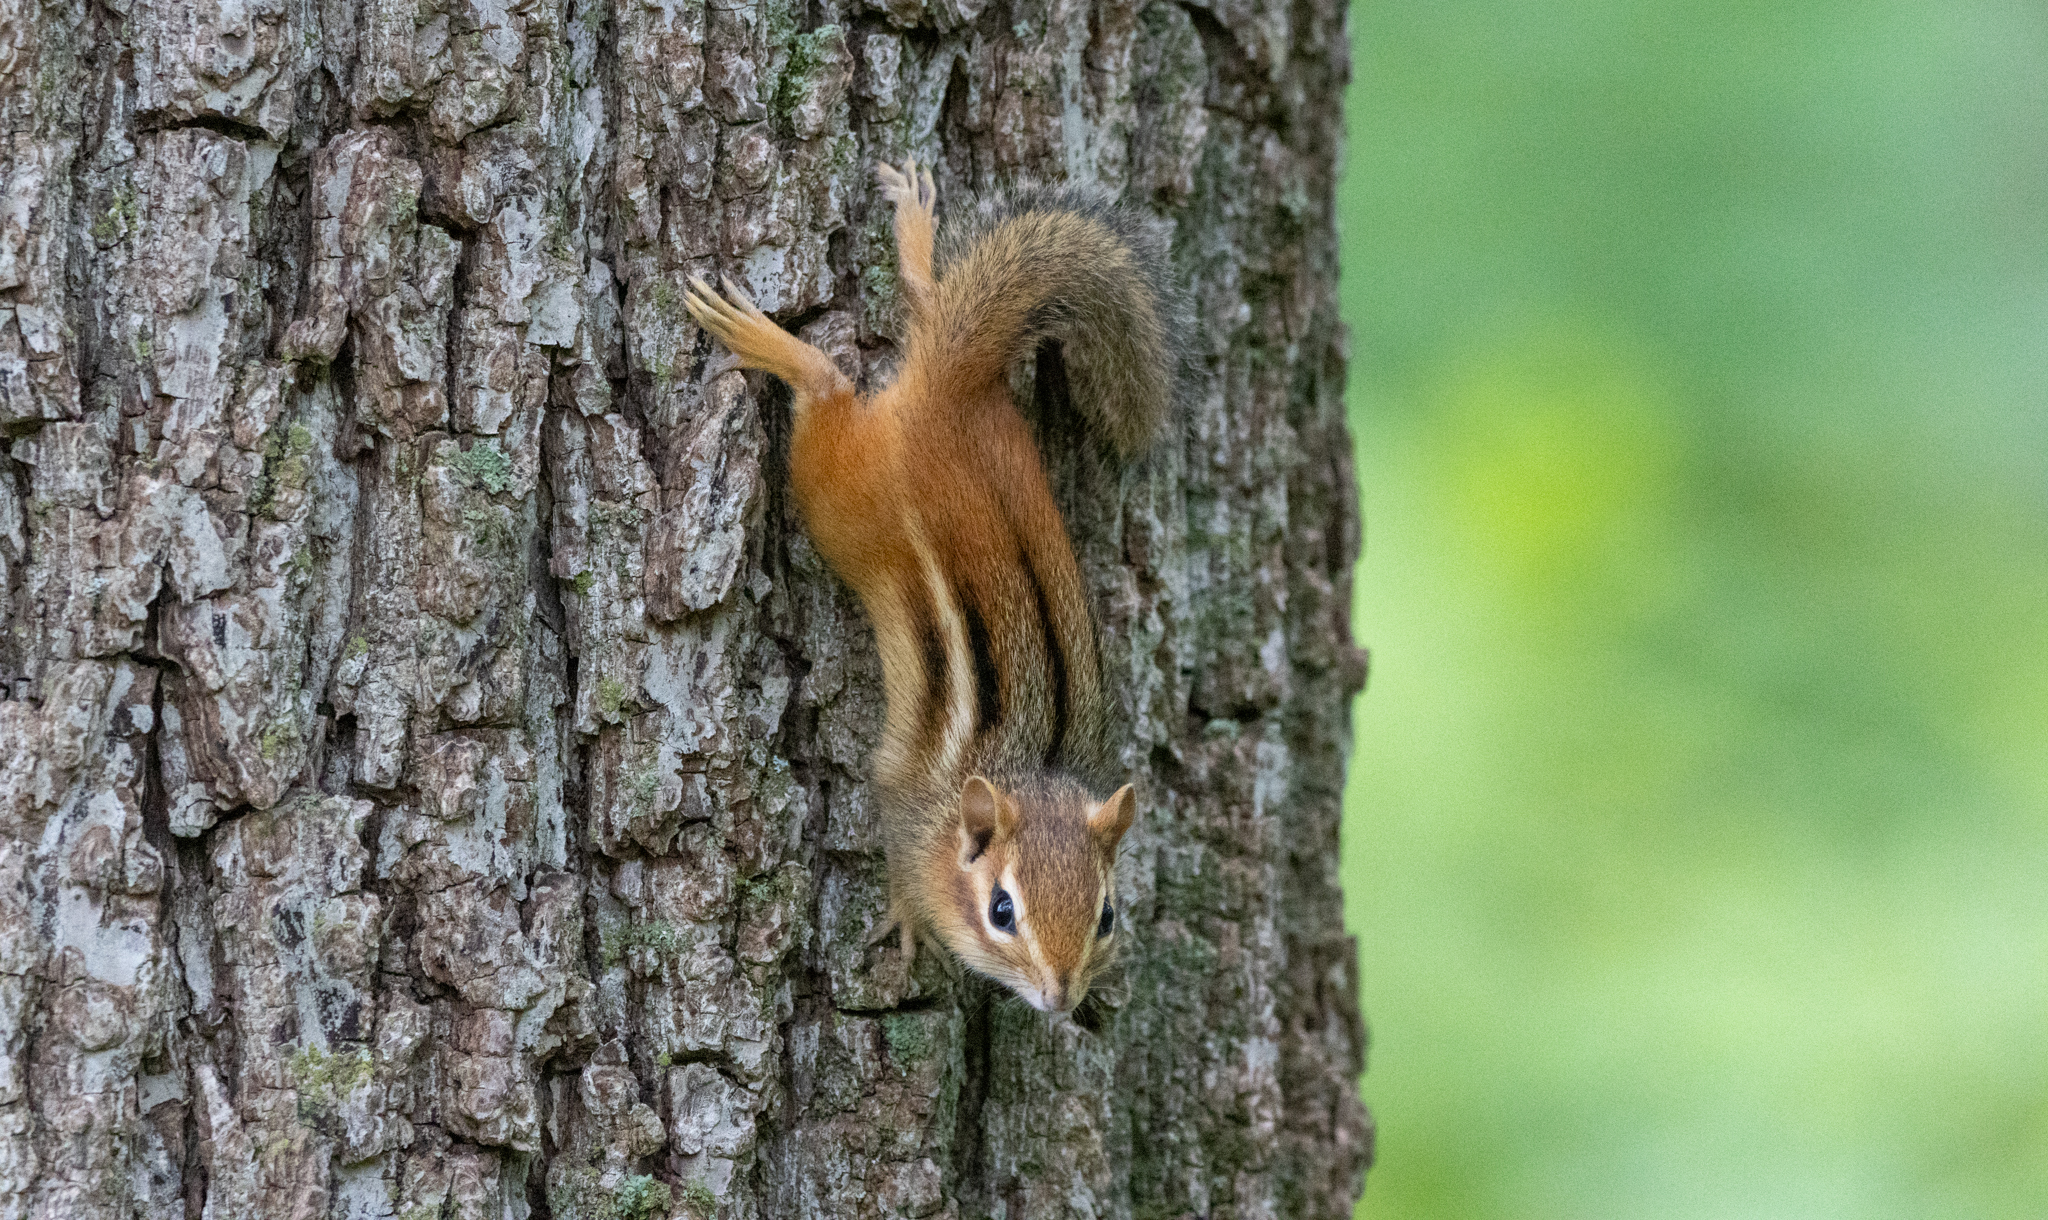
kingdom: Animalia
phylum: Chordata
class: Mammalia
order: Rodentia
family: Sciuridae
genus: Tamias
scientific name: Tamias striatus
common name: Eastern chipmunk
